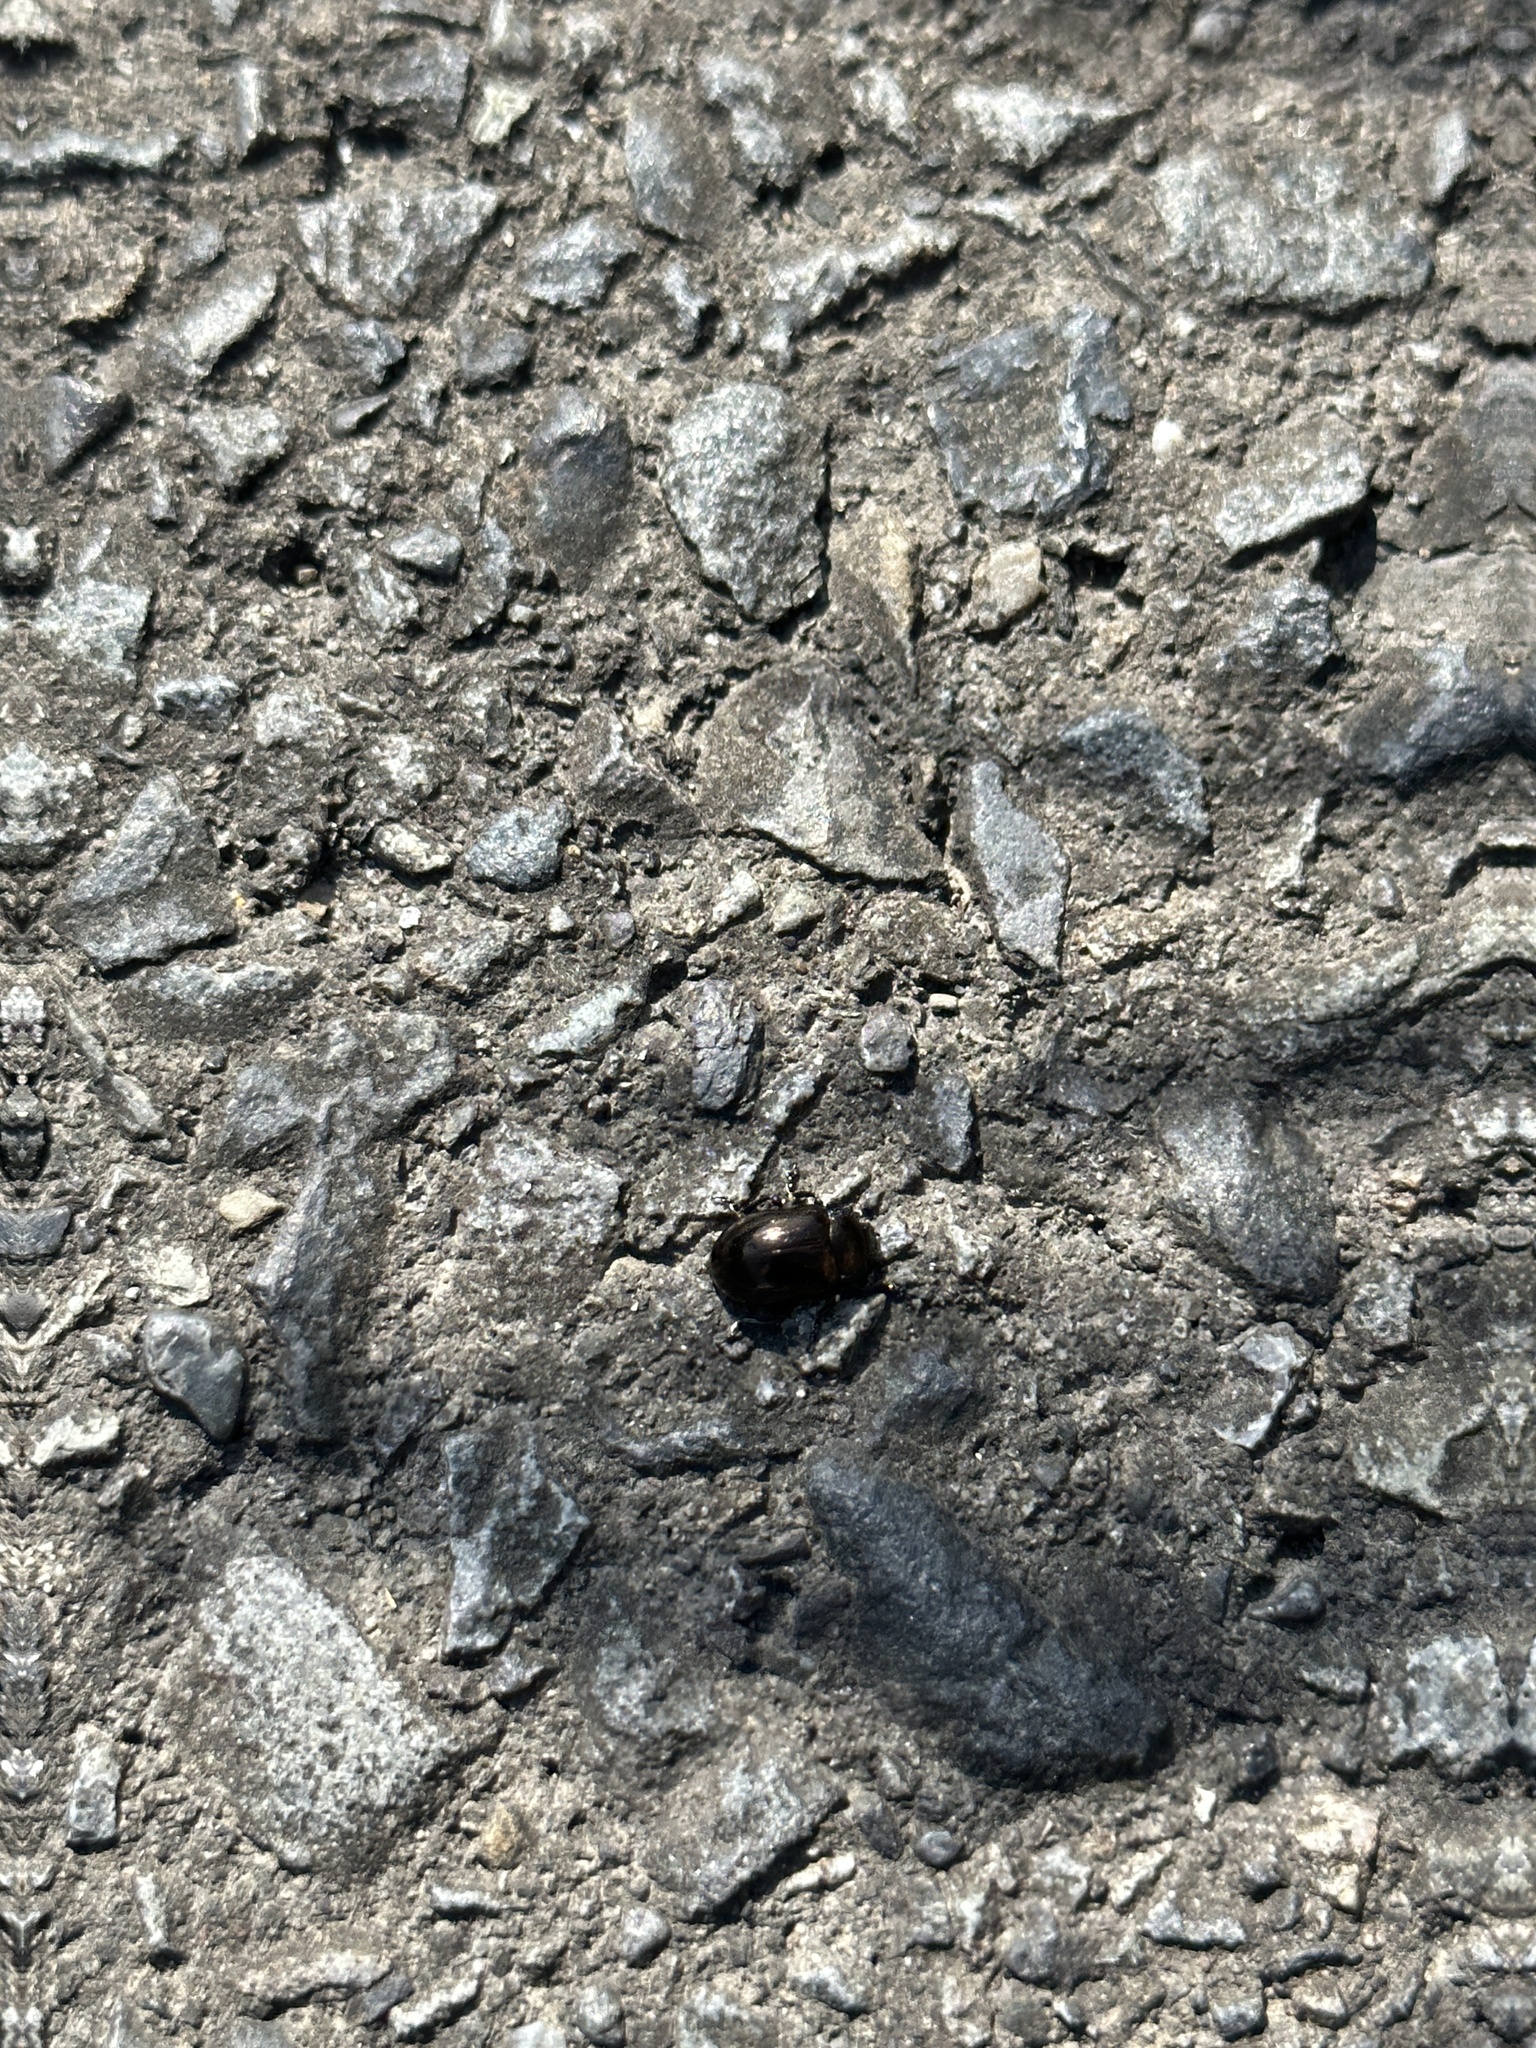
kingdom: Animalia
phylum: Arthropoda
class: Insecta
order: Coleoptera
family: Chrysomelidae
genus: Chrysolina
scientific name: Chrysolina aurichalcea
